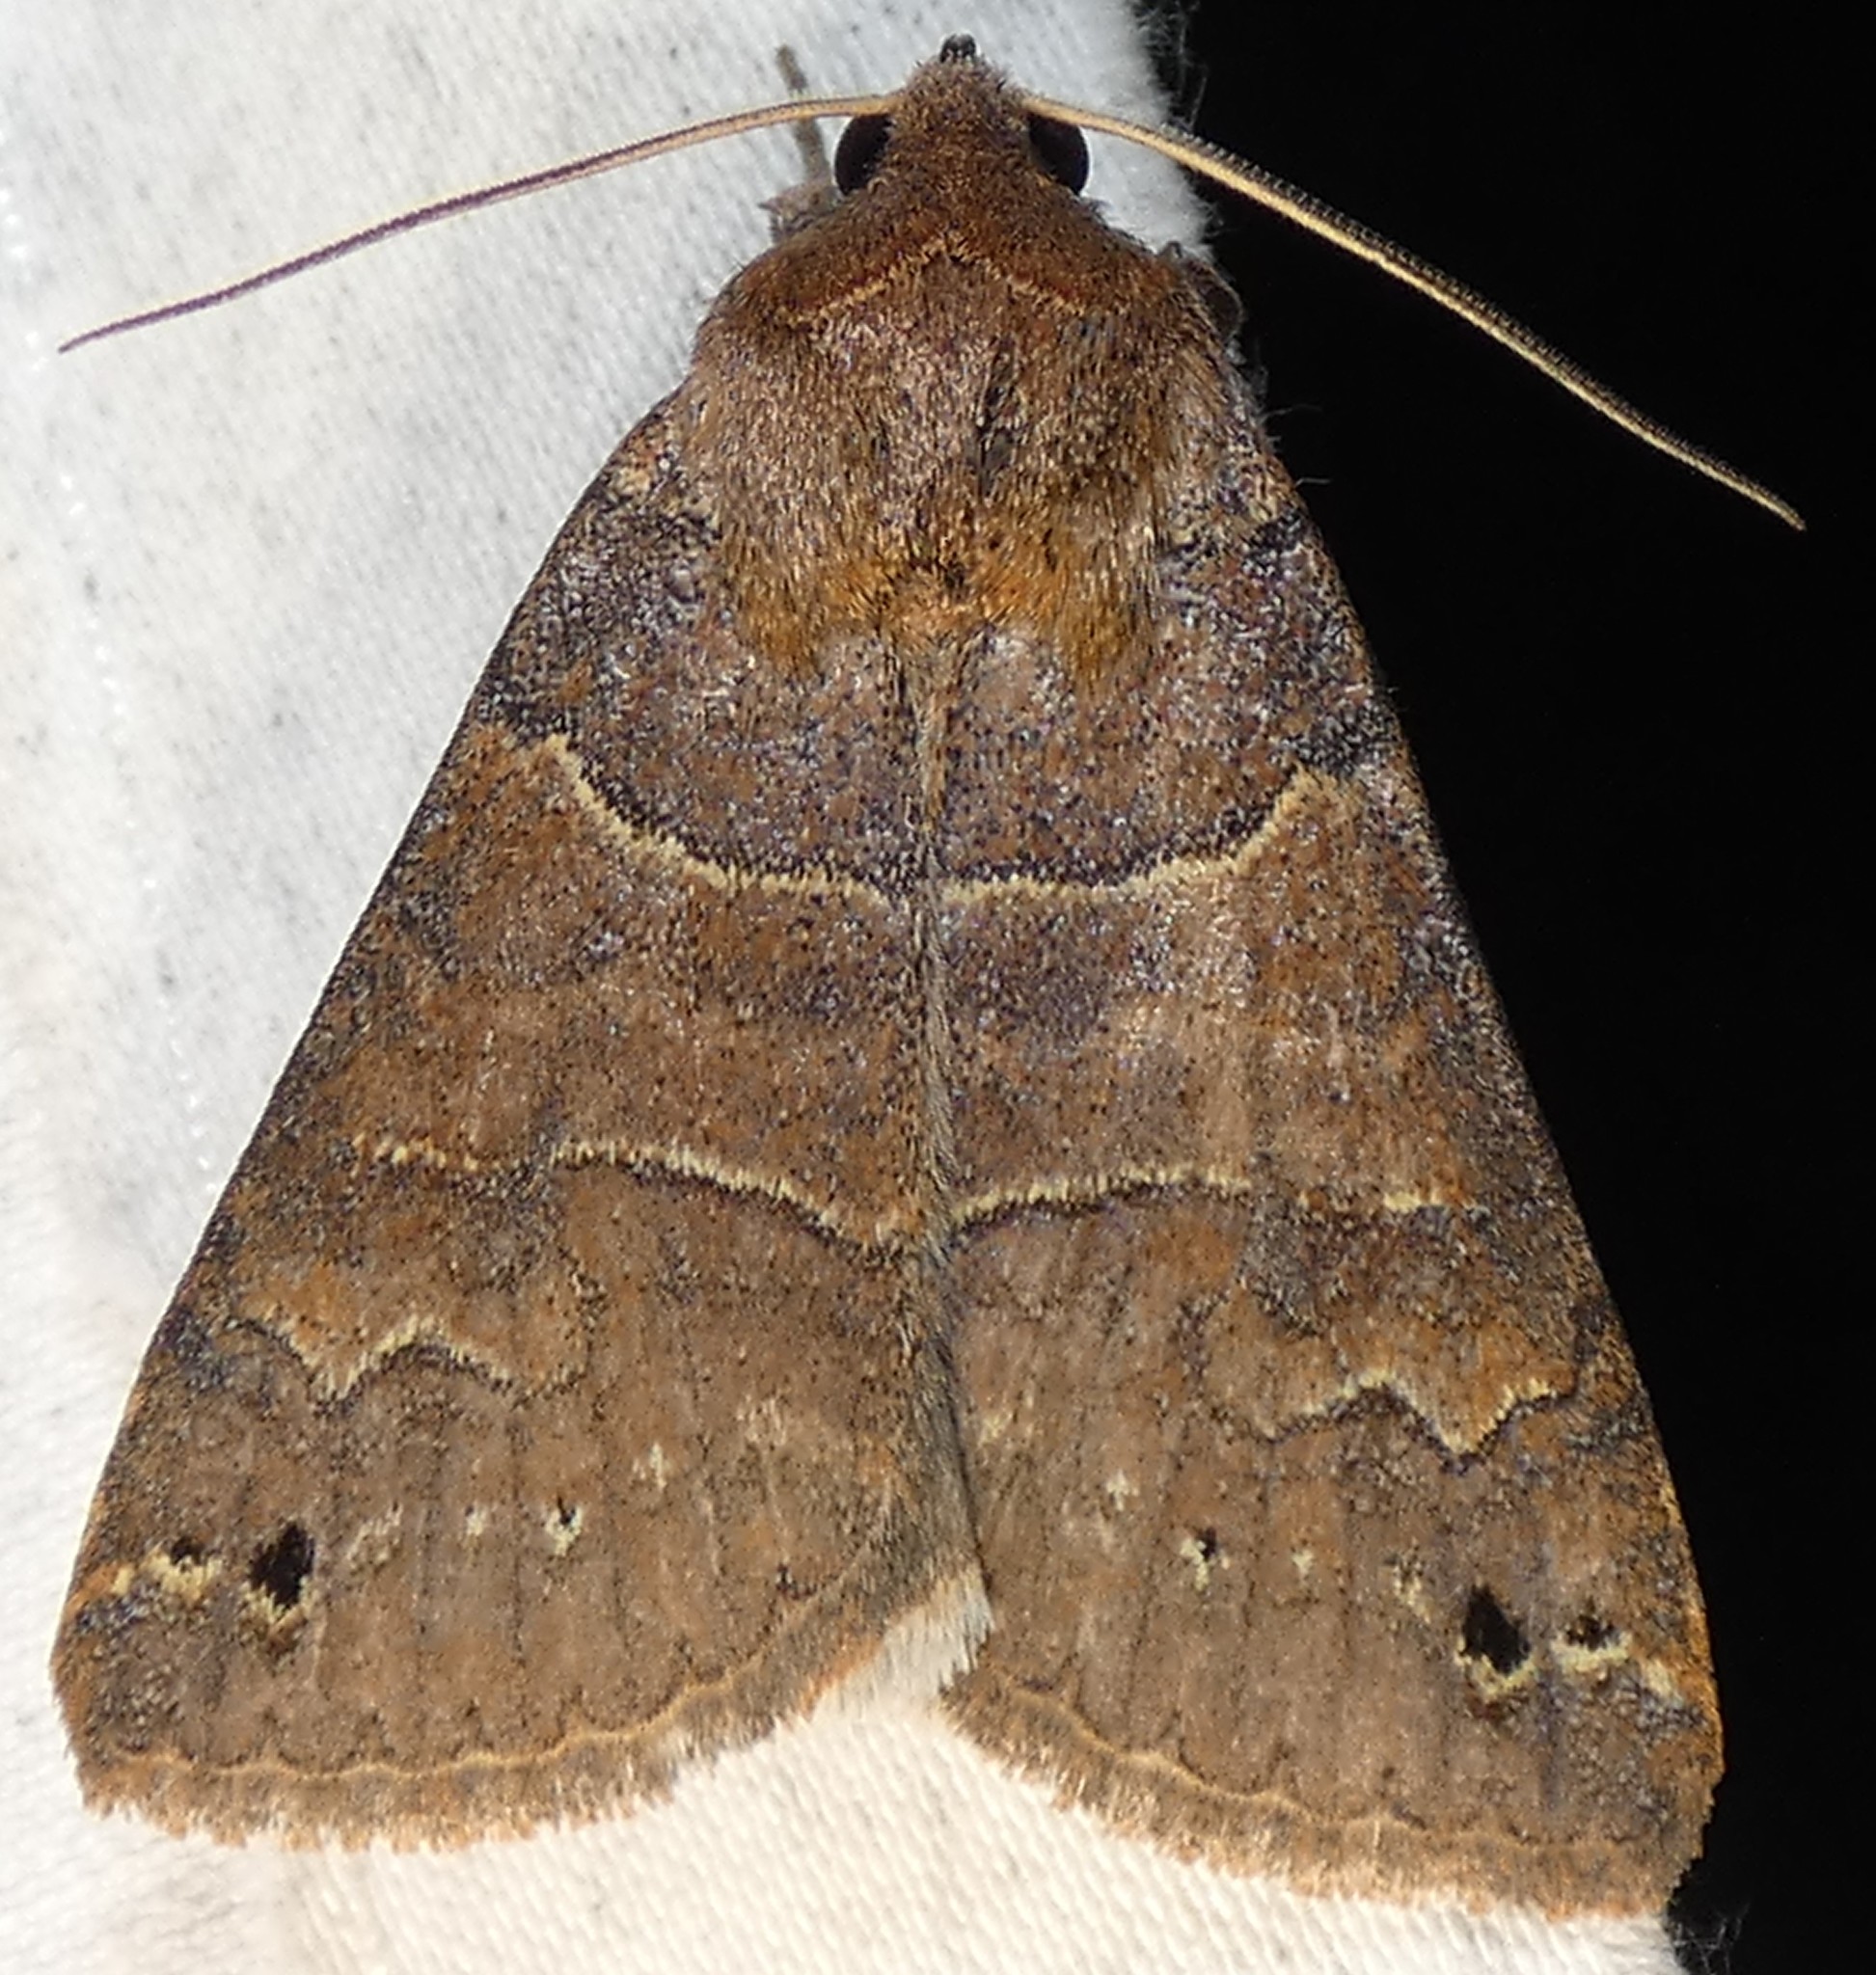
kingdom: Animalia
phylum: Arthropoda
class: Insecta
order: Lepidoptera
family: Erebidae
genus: Cissusa
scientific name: Cissusa spadix
